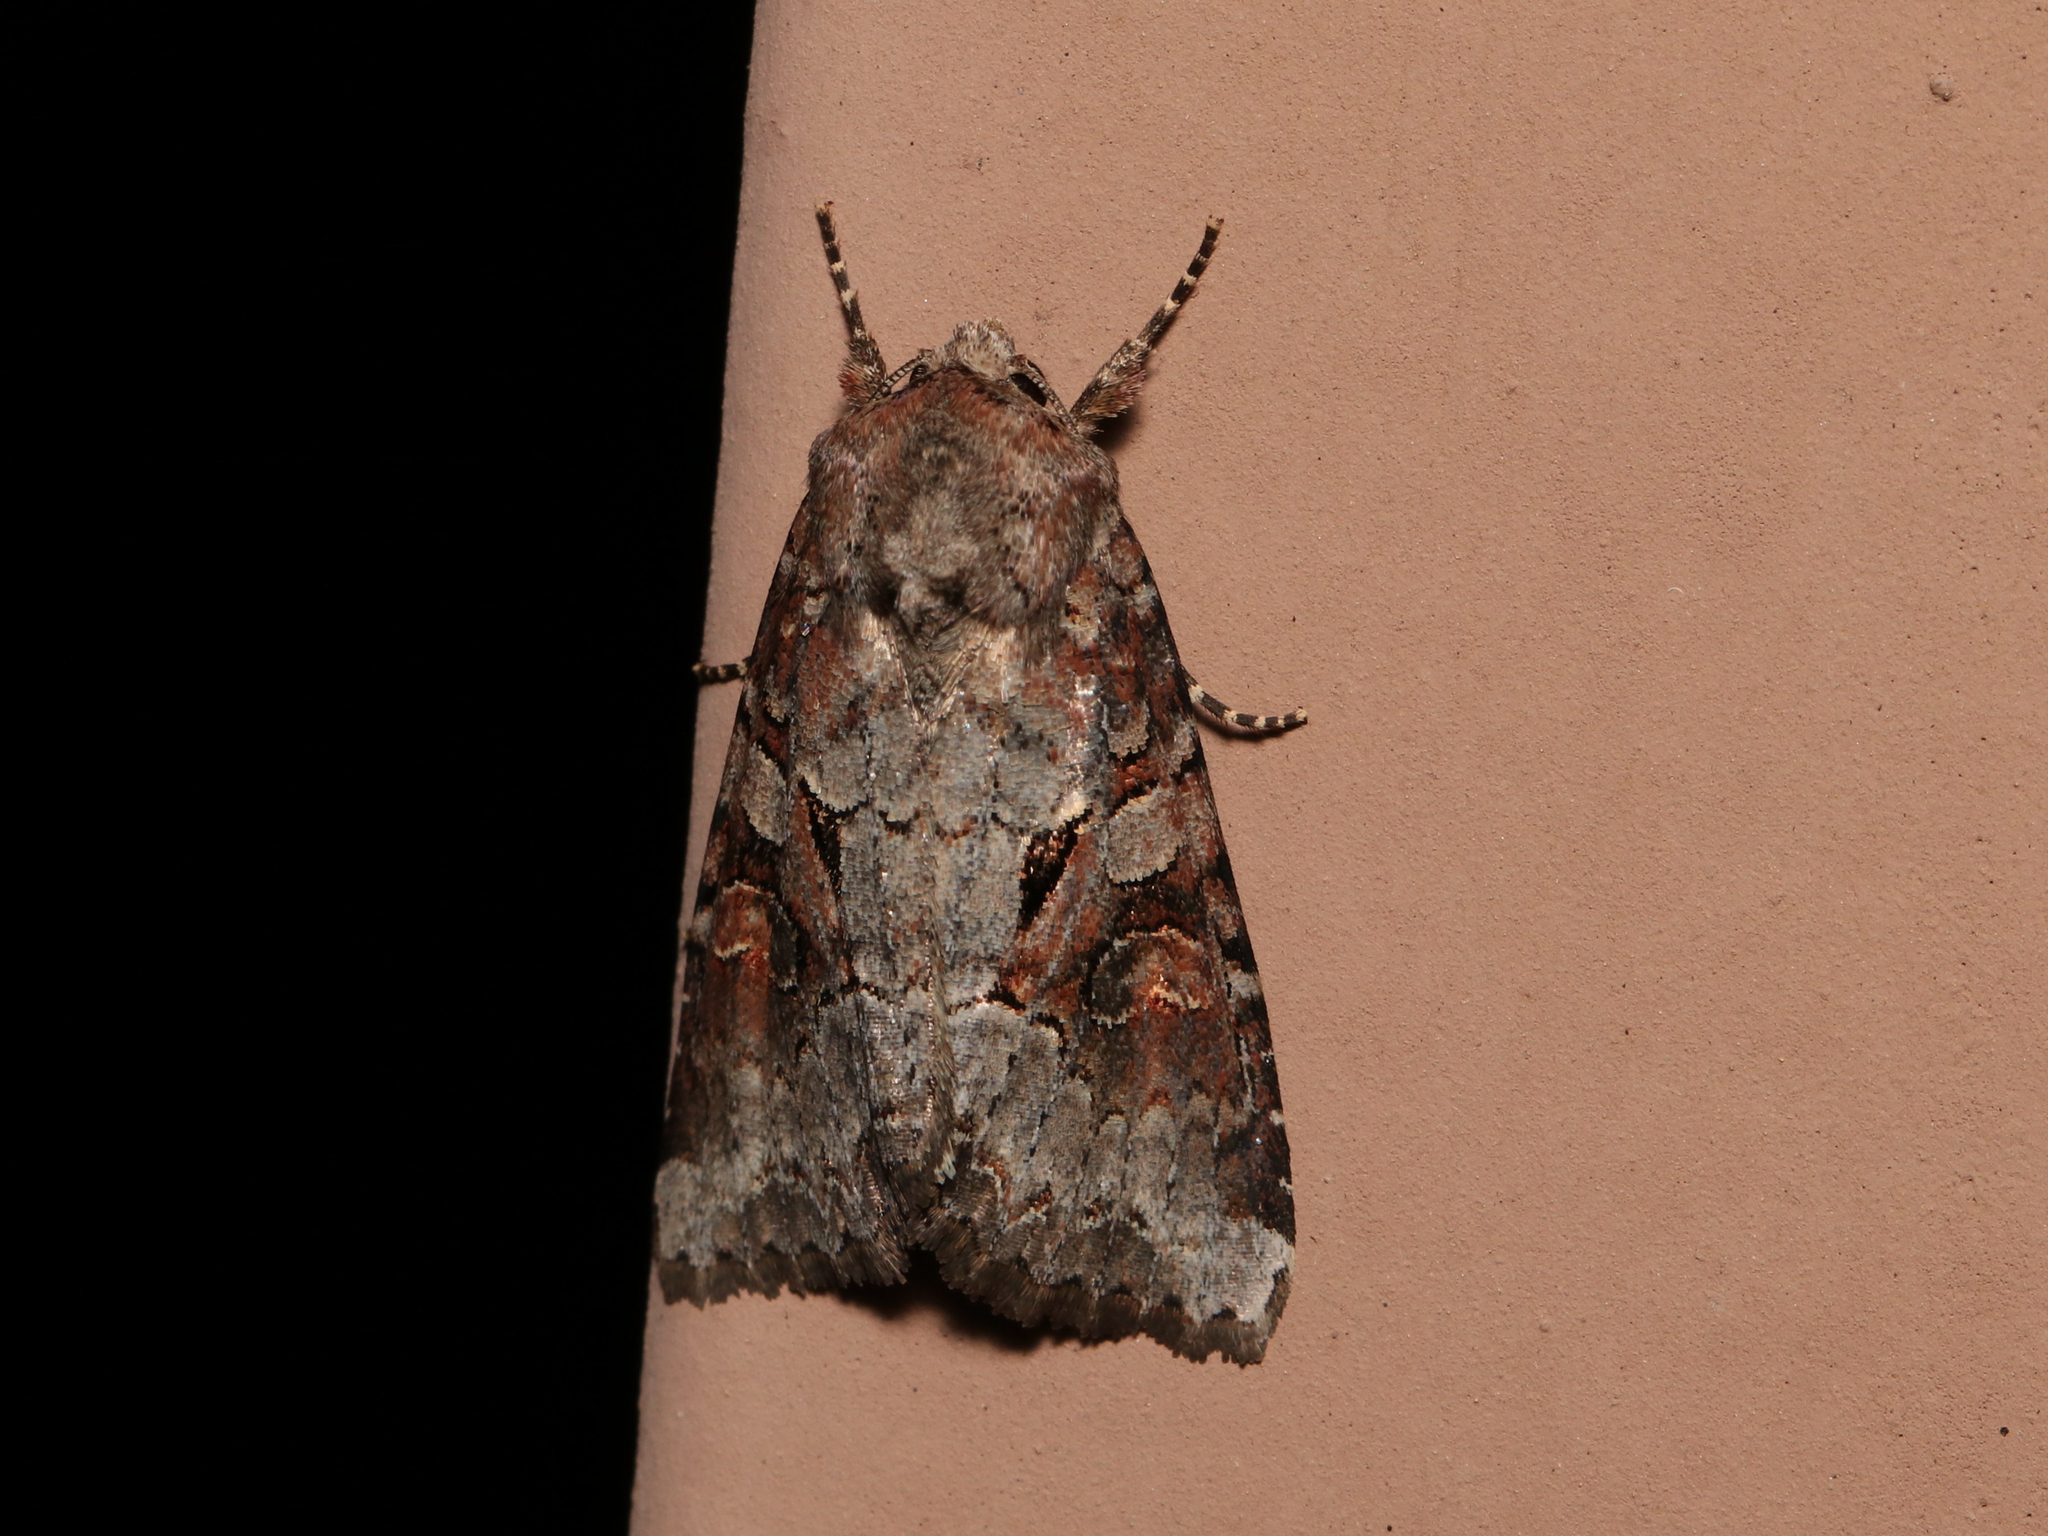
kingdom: Animalia
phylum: Arthropoda
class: Insecta
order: Lepidoptera
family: Noctuidae
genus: Trichordestra
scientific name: Trichordestra legitima
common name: Striped garden caterpillar
